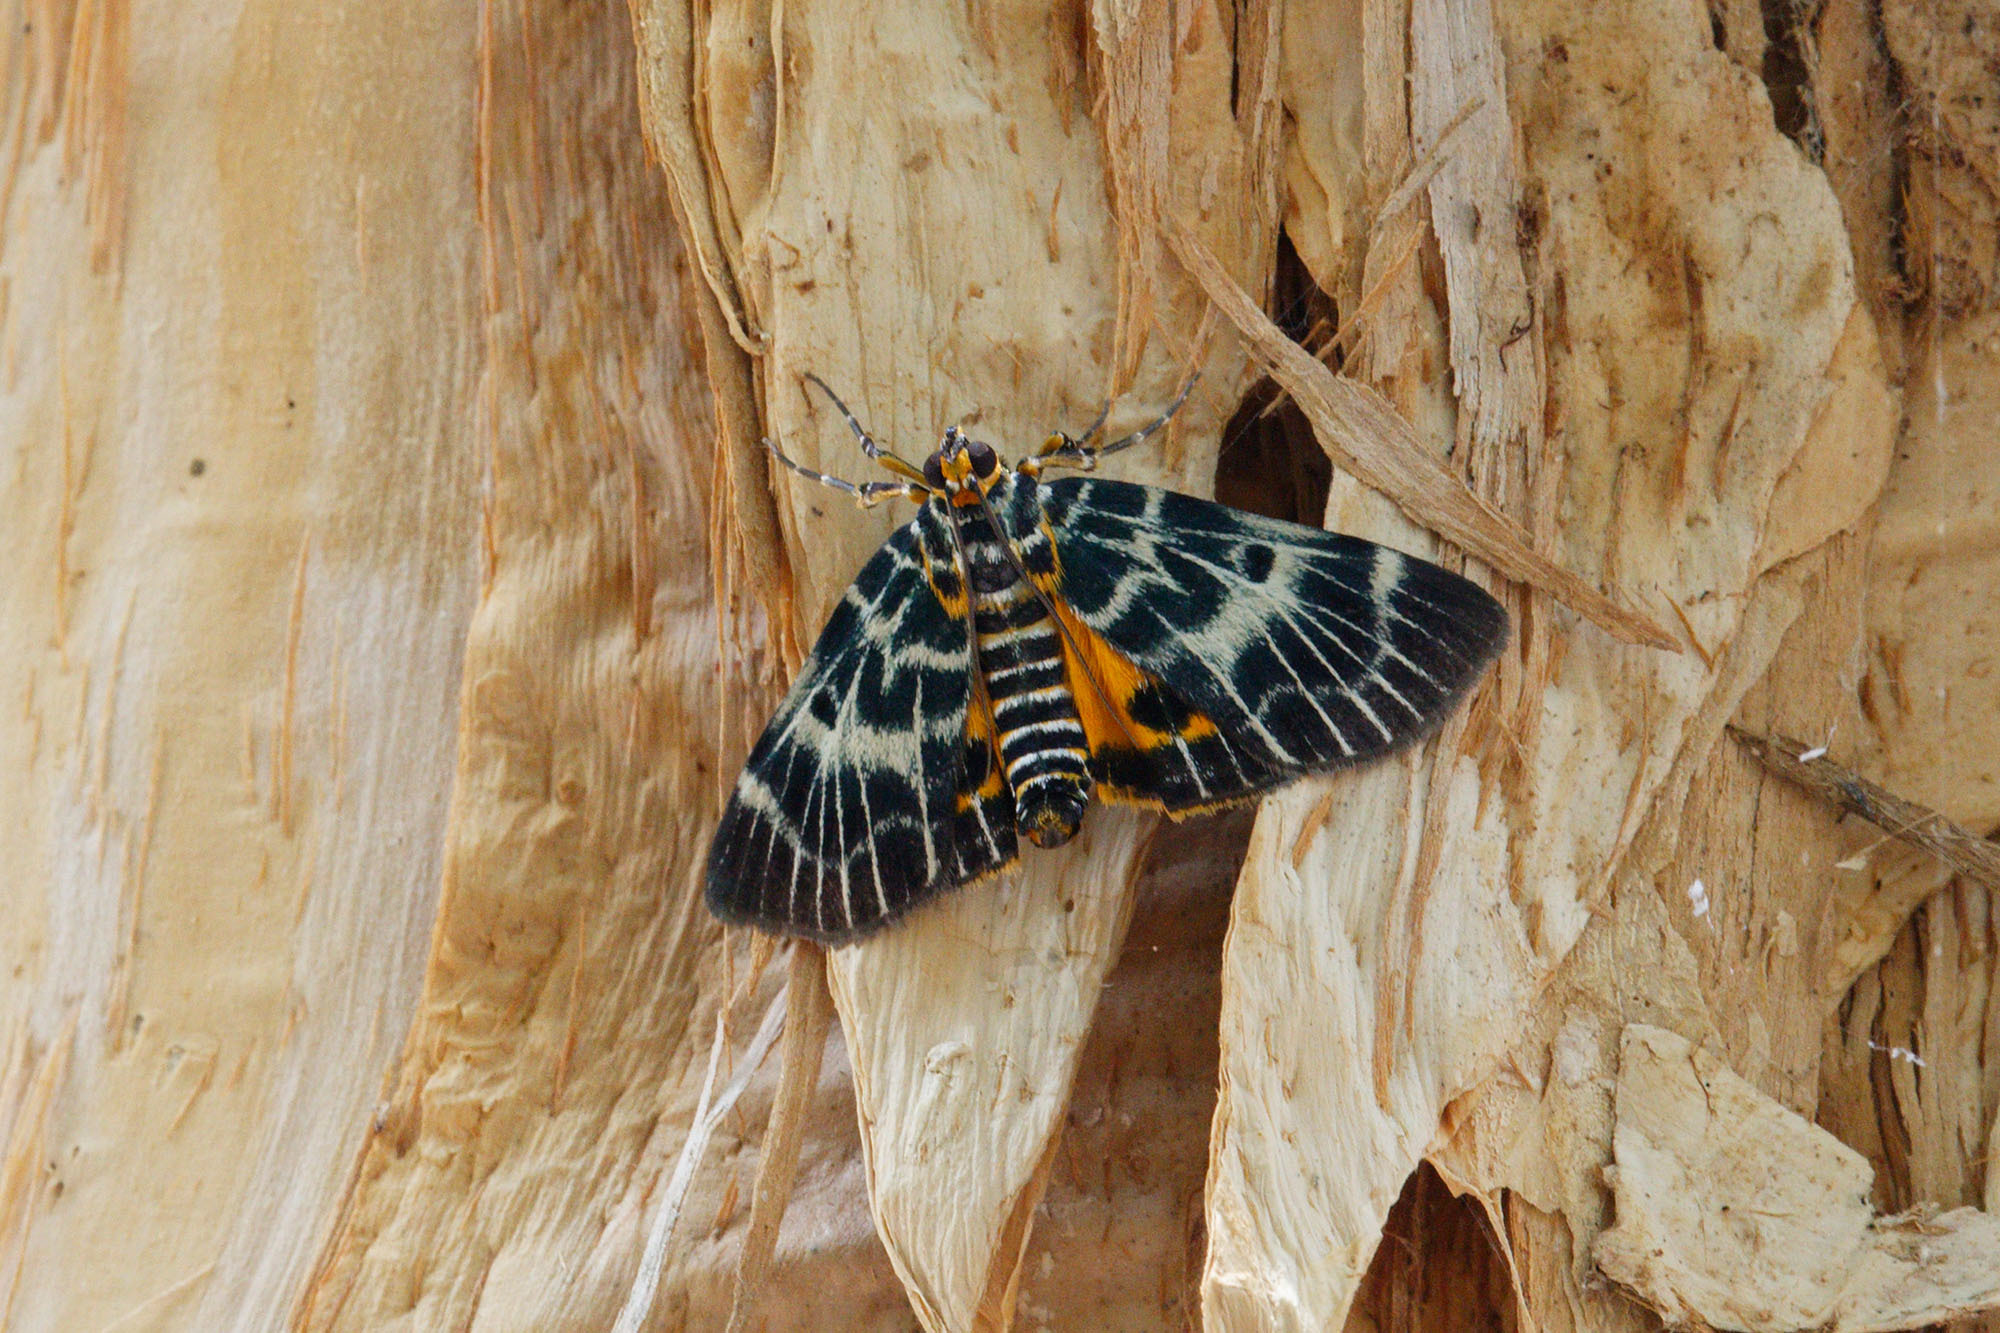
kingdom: Animalia
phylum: Arthropoda
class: Insecta
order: Lepidoptera
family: Pyralidae
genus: Cardamyla
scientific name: Cardamyla carinentalis
